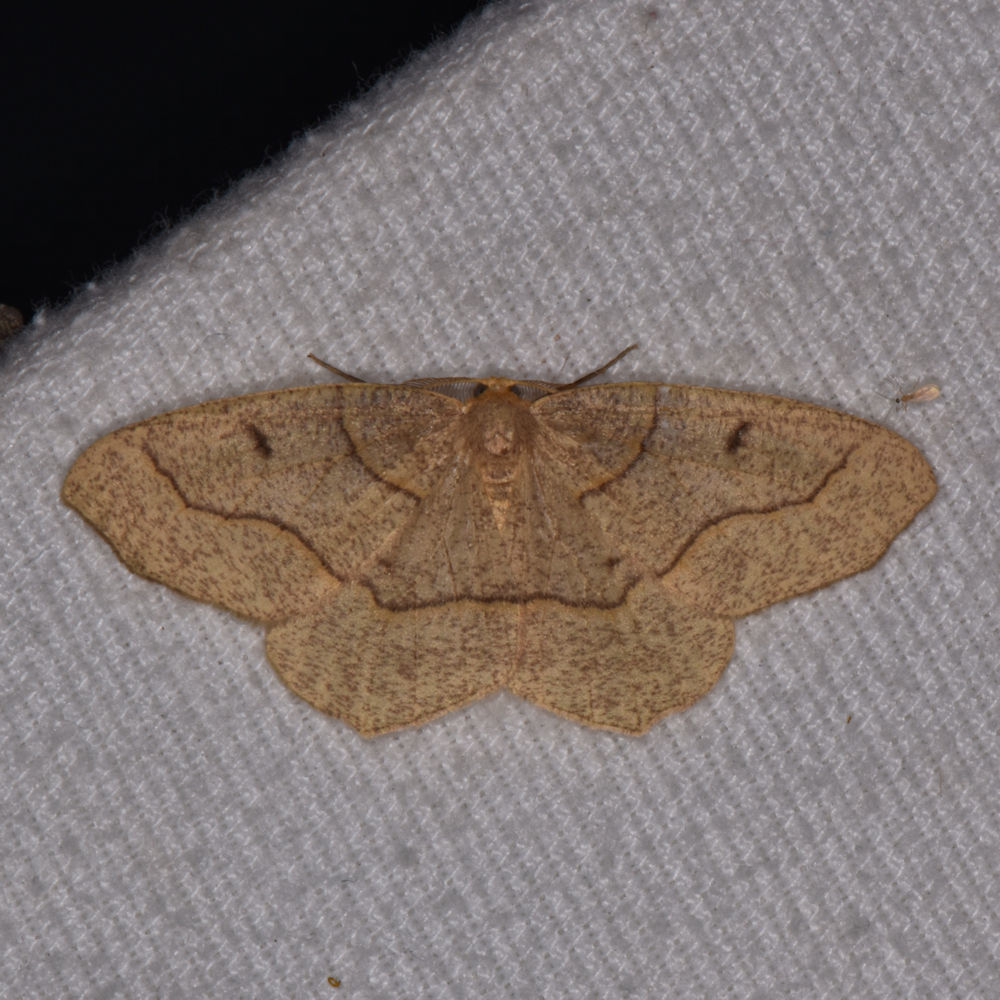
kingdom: Animalia
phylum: Arthropoda
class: Insecta
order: Lepidoptera
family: Geometridae
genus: Lambdina
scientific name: Lambdina fiscellaria
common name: Hemlock looper
